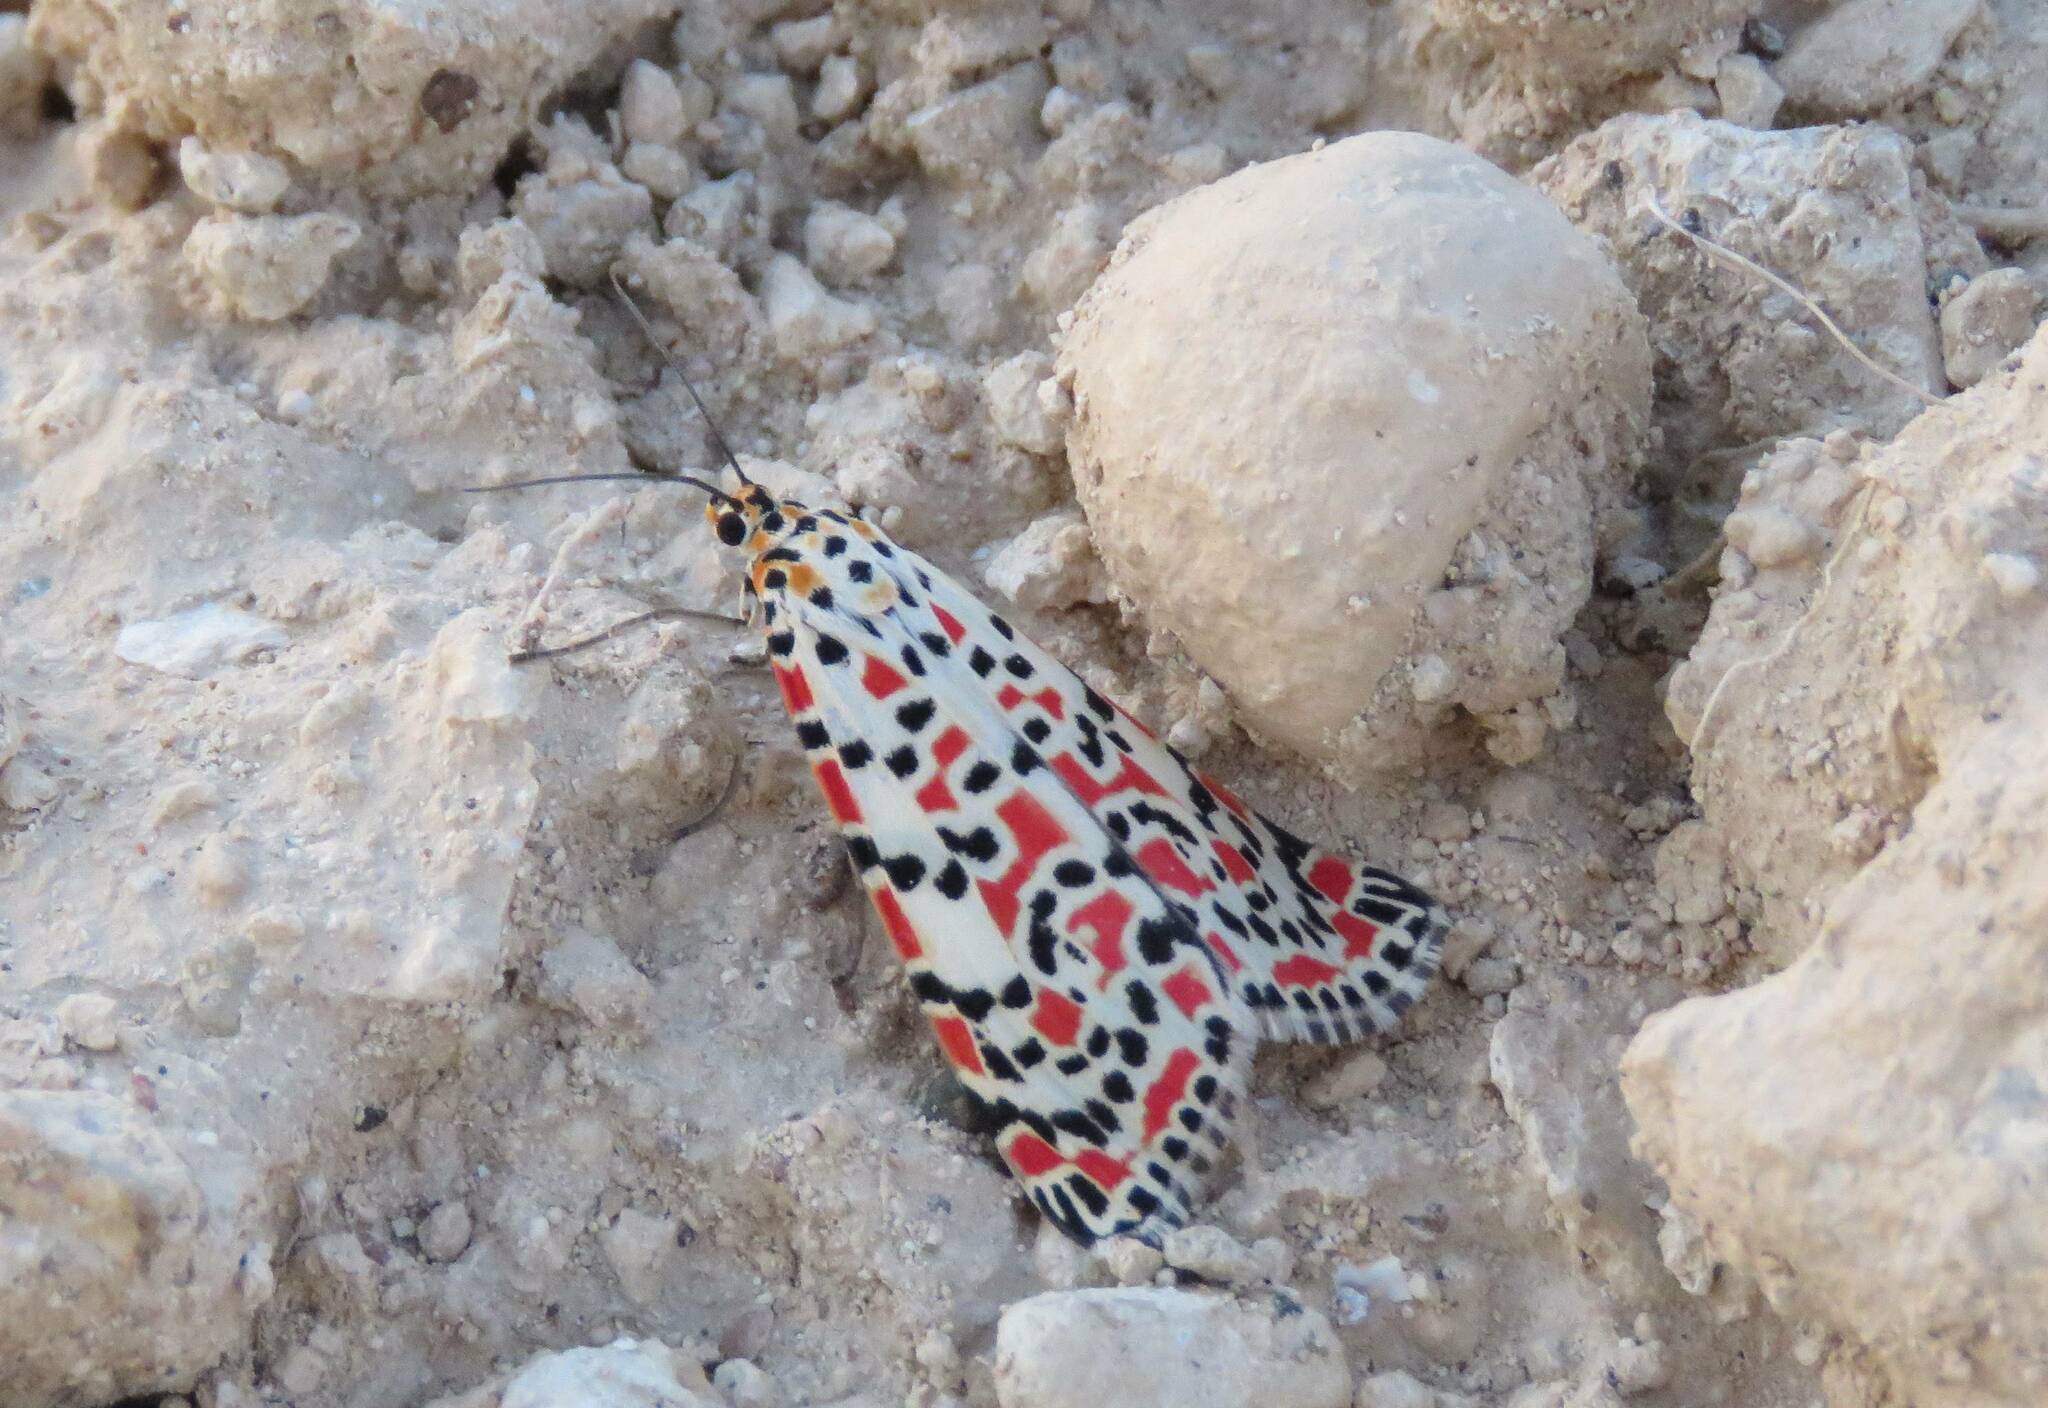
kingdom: Animalia
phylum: Arthropoda
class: Insecta
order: Lepidoptera
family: Erebidae
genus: Utetheisa
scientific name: Utetheisa pulchella
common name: Crimson speckled
